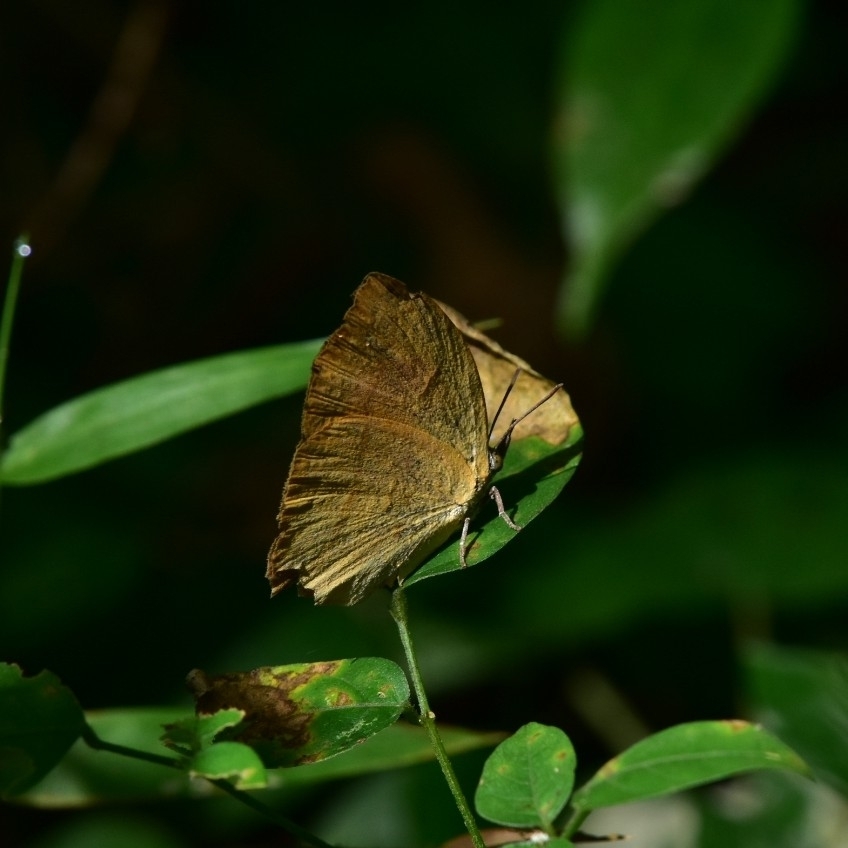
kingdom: Animalia
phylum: Arthropoda
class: Insecta
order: Lepidoptera
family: Lycaenidae
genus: Loxura
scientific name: Loxura atymnus
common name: Common yamfly
